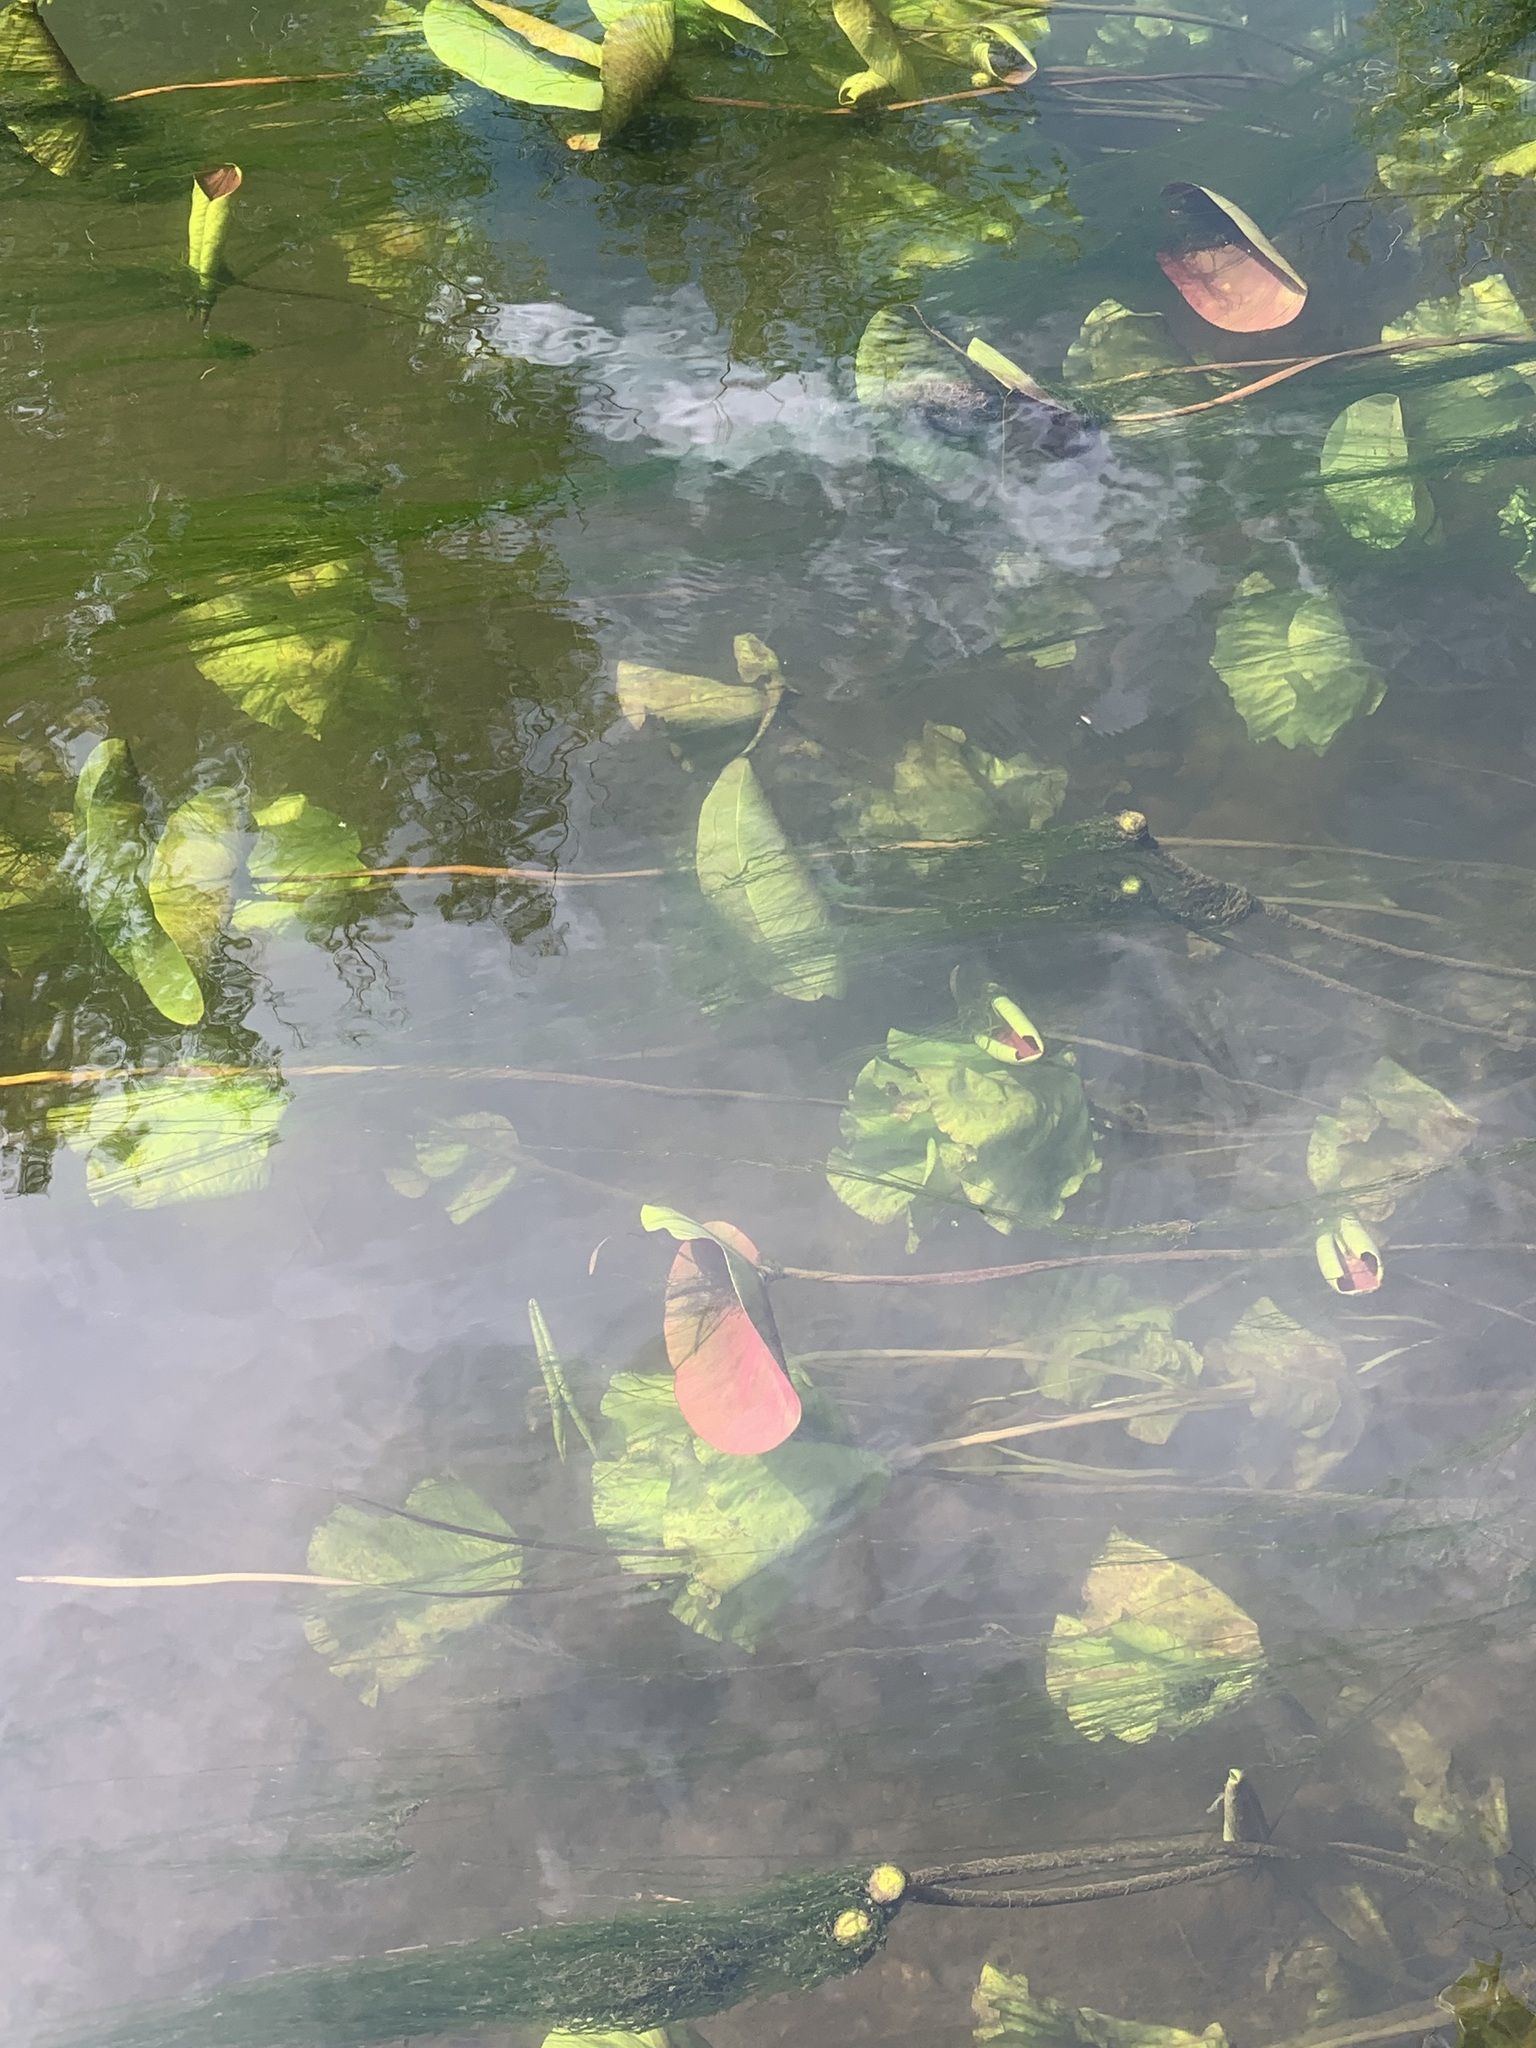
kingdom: Plantae
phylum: Tracheophyta
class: Magnoliopsida
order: Nymphaeales
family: Nymphaeaceae
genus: Nuphar
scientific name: Nuphar lutea
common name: Yellow water-lily
